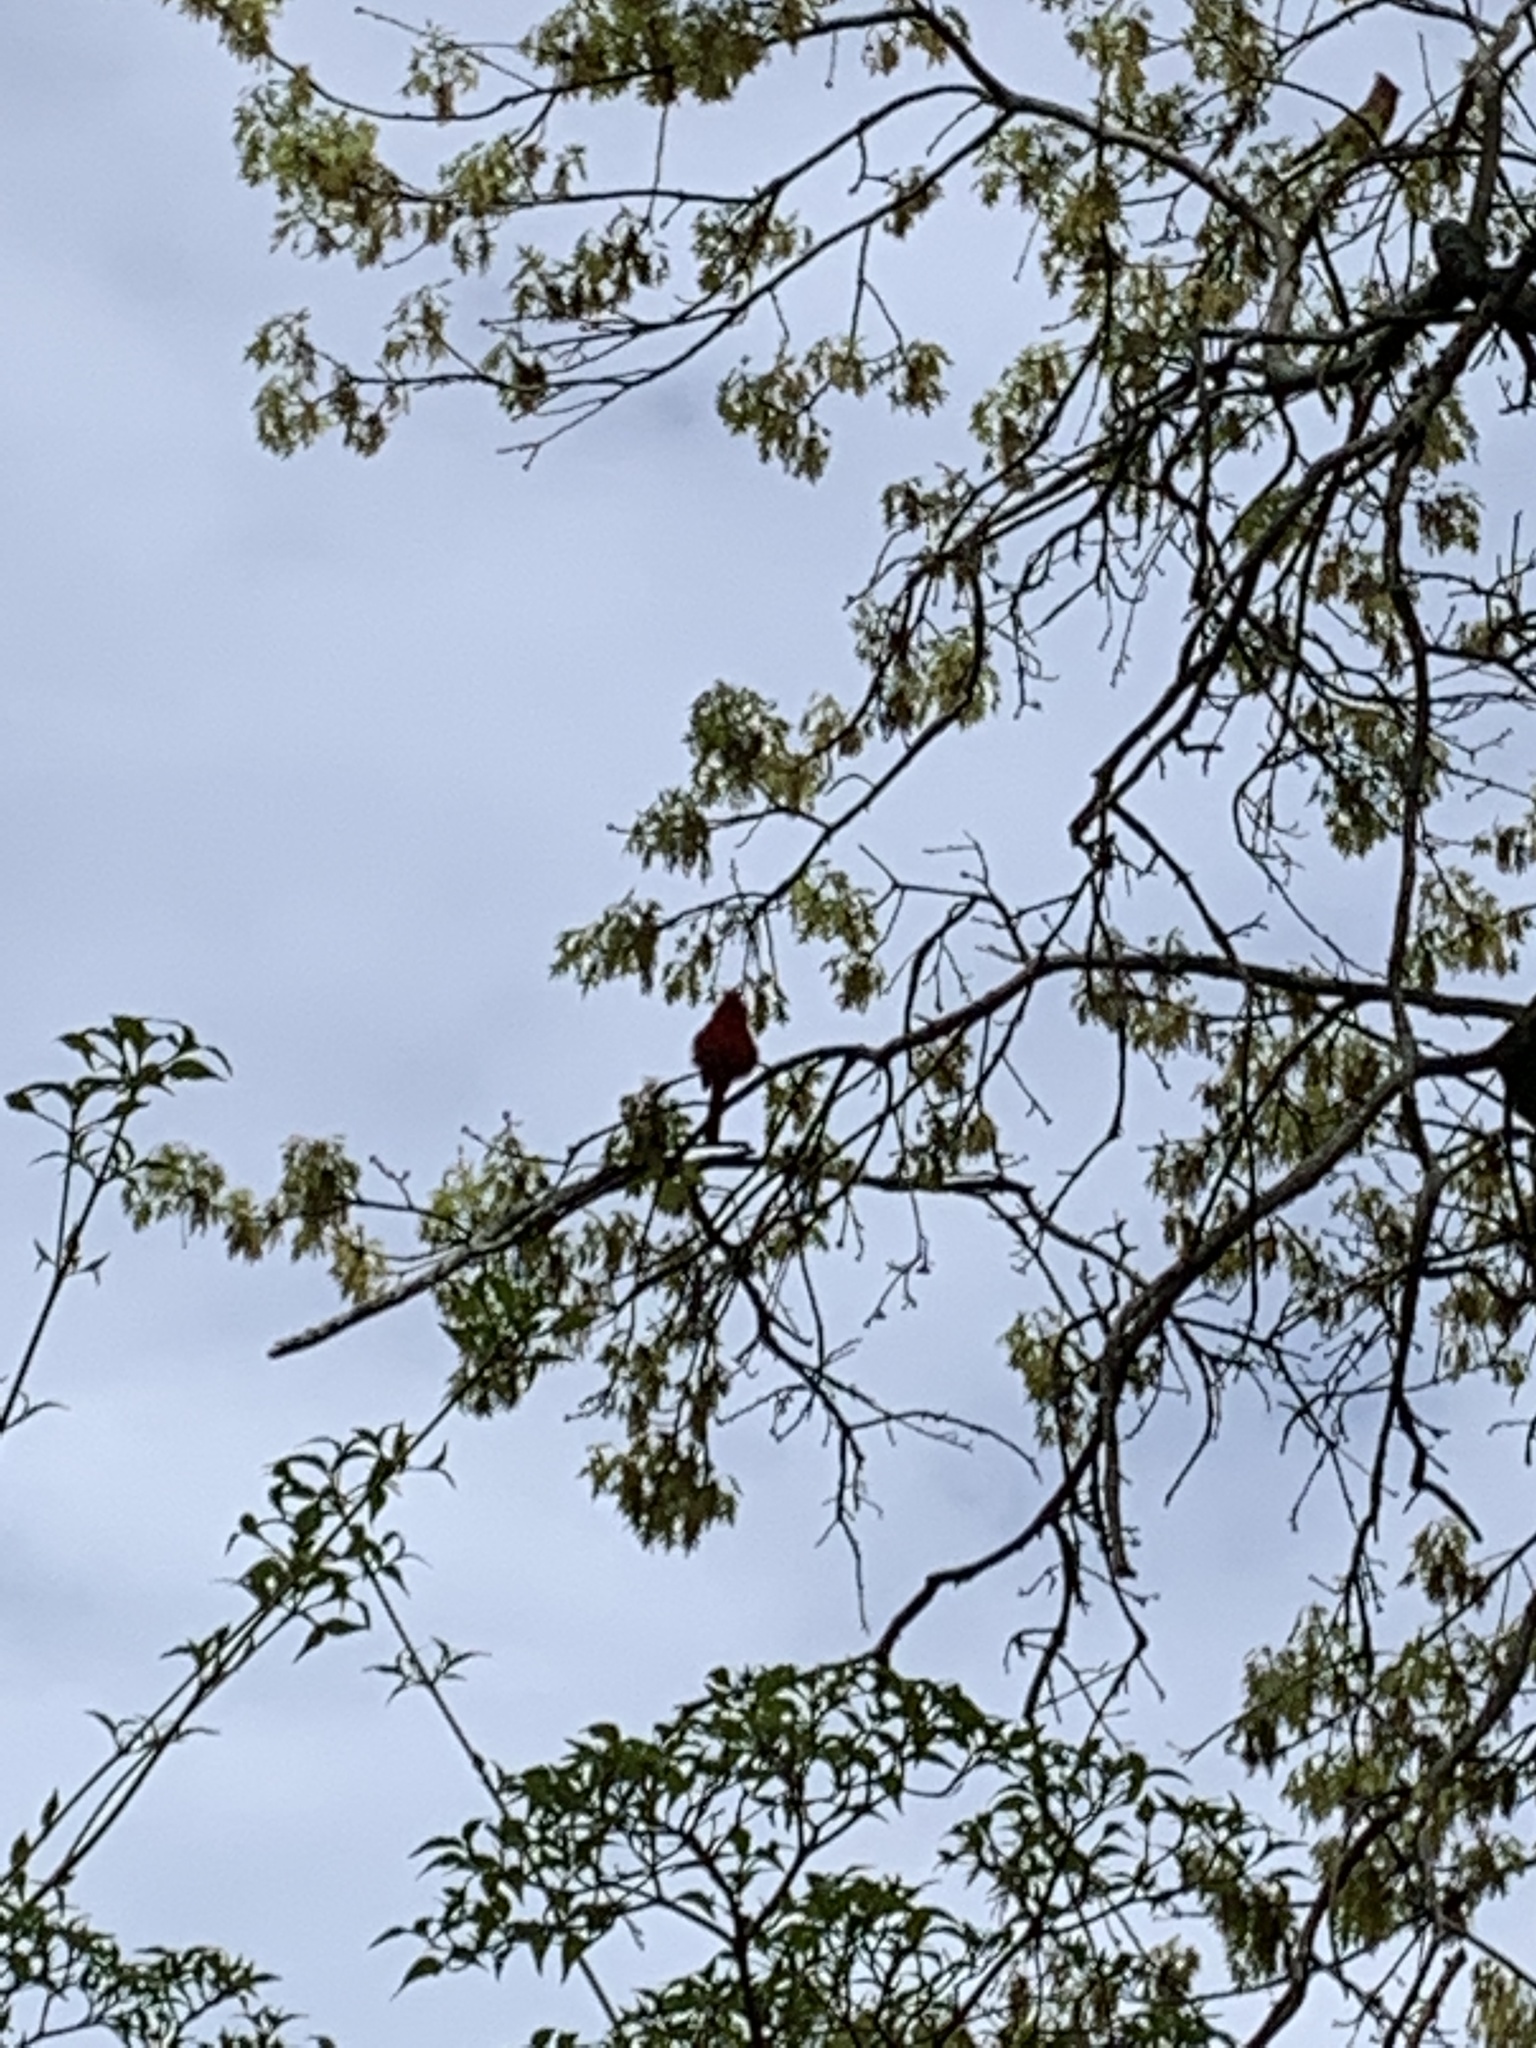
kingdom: Animalia
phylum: Chordata
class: Aves
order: Passeriformes
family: Cardinalidae
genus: Cardinalis
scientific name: Cardinalis cardinalis
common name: Northern cardinal
